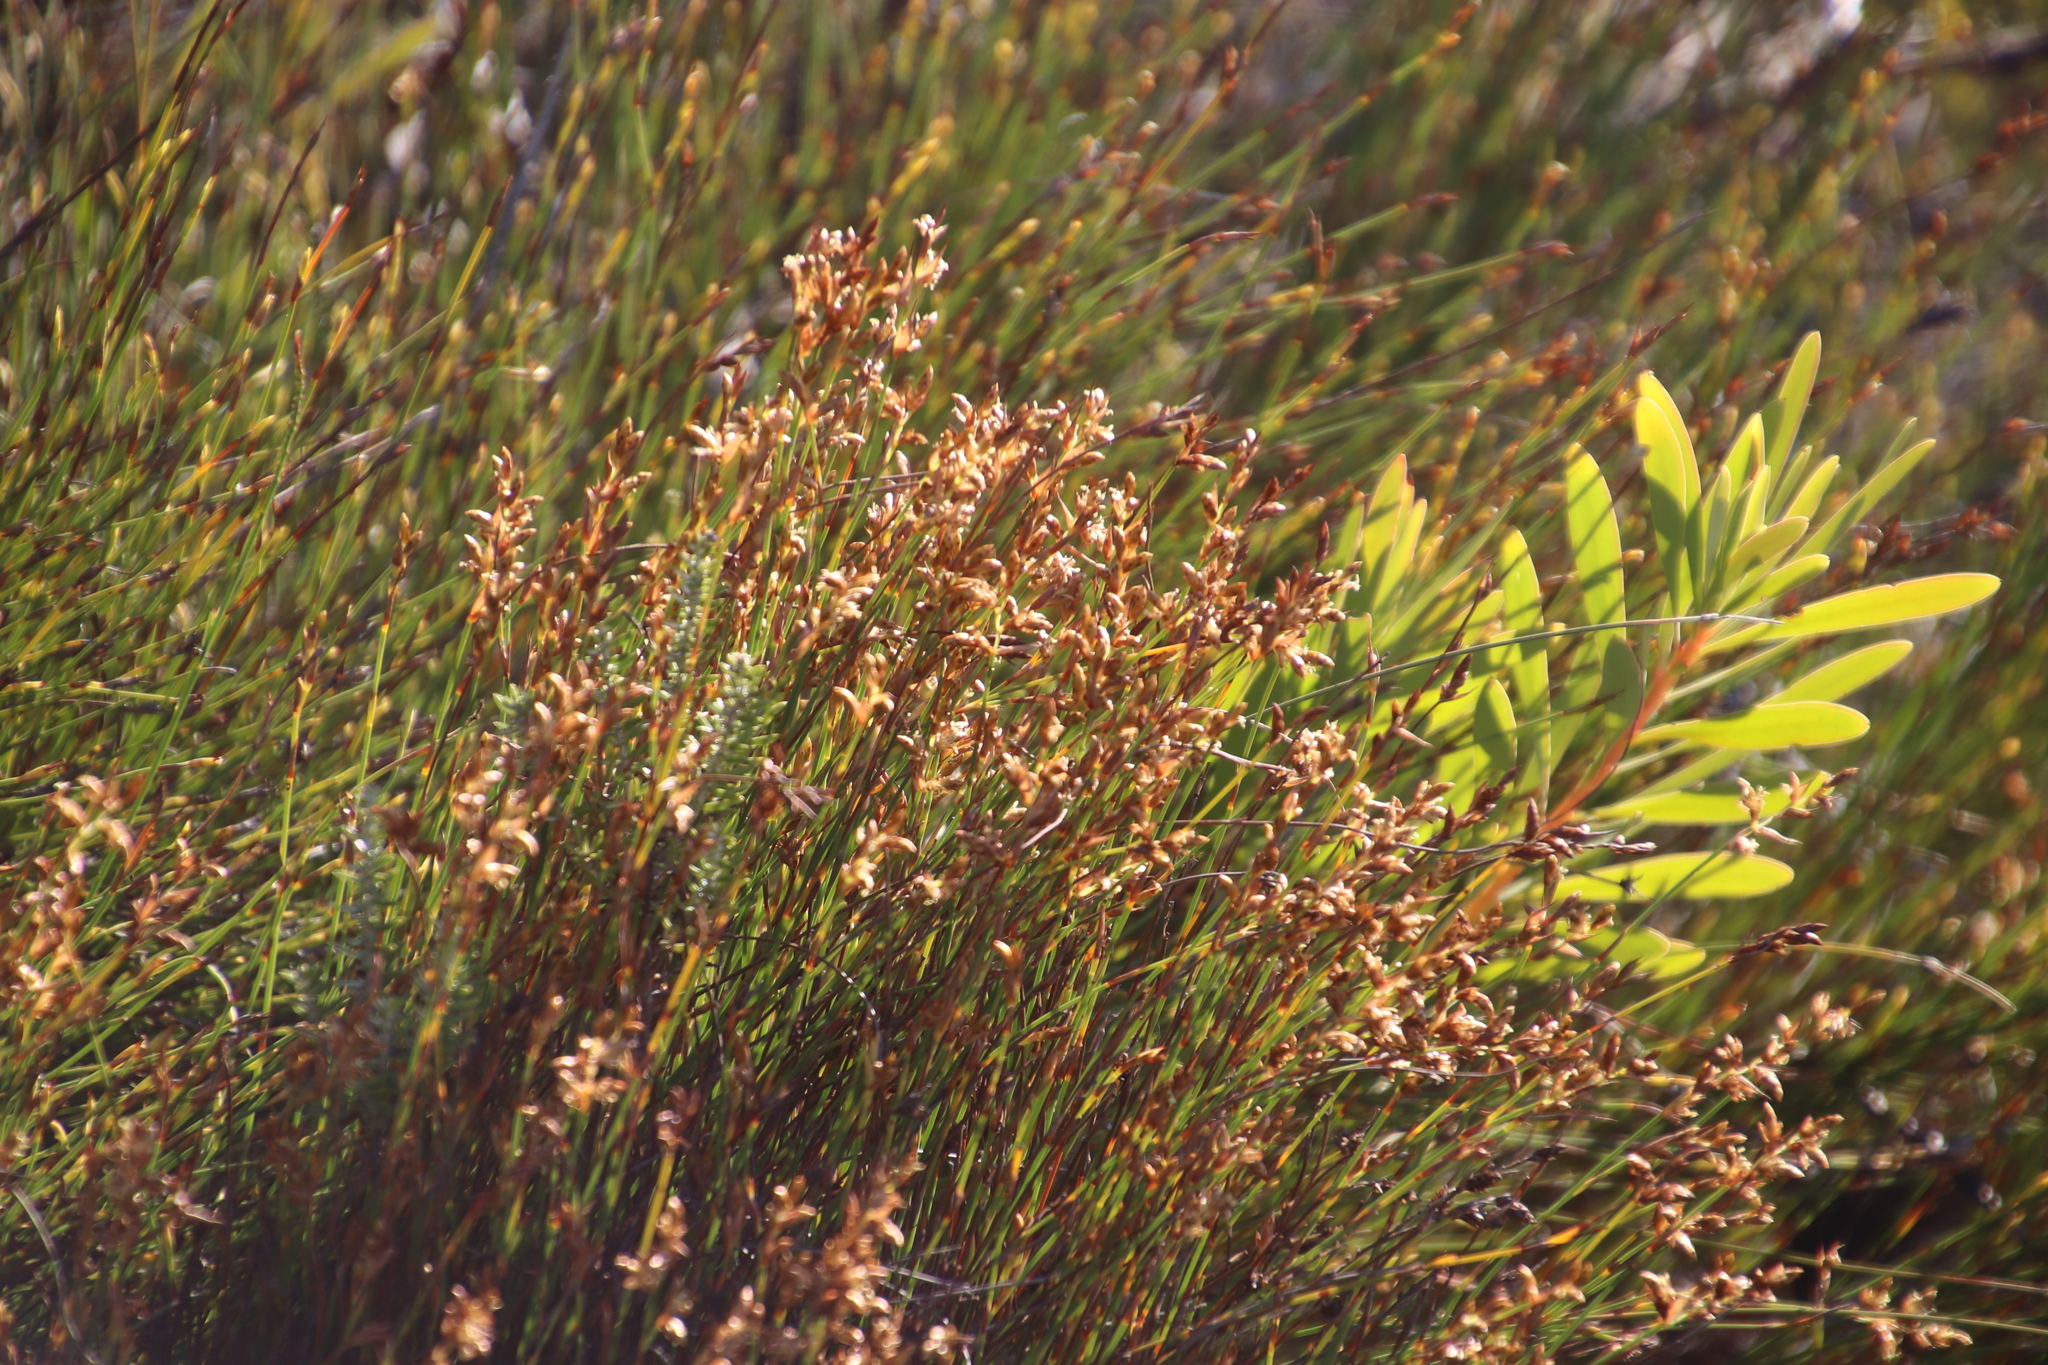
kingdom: Plantae
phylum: Tracheophyta
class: Liliopsida
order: Poales
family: Restionaceae
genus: Mastersiella
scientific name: Mastersiella digitata
